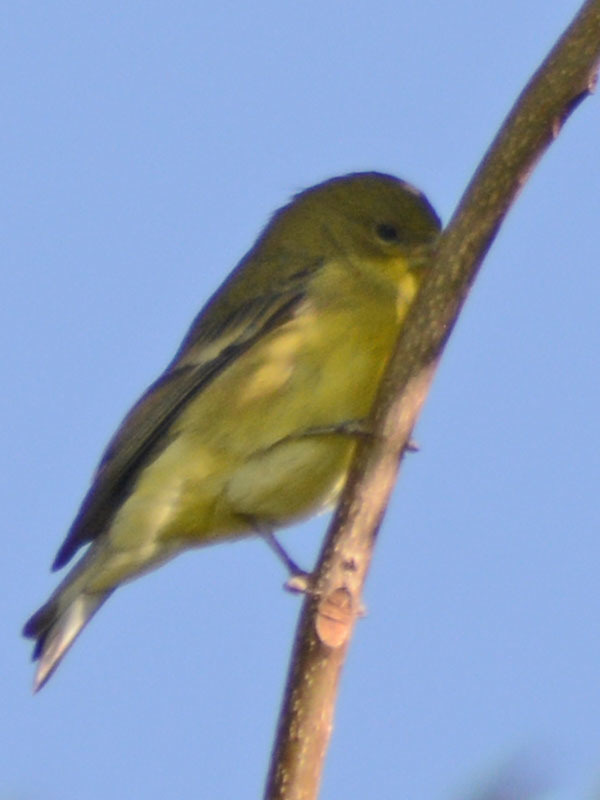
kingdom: Animalia
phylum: Chordata
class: Aves
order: Passeriformes
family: Fringillidae
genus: Spinus
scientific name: Spinus psaltria
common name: Lesser goldfinch
